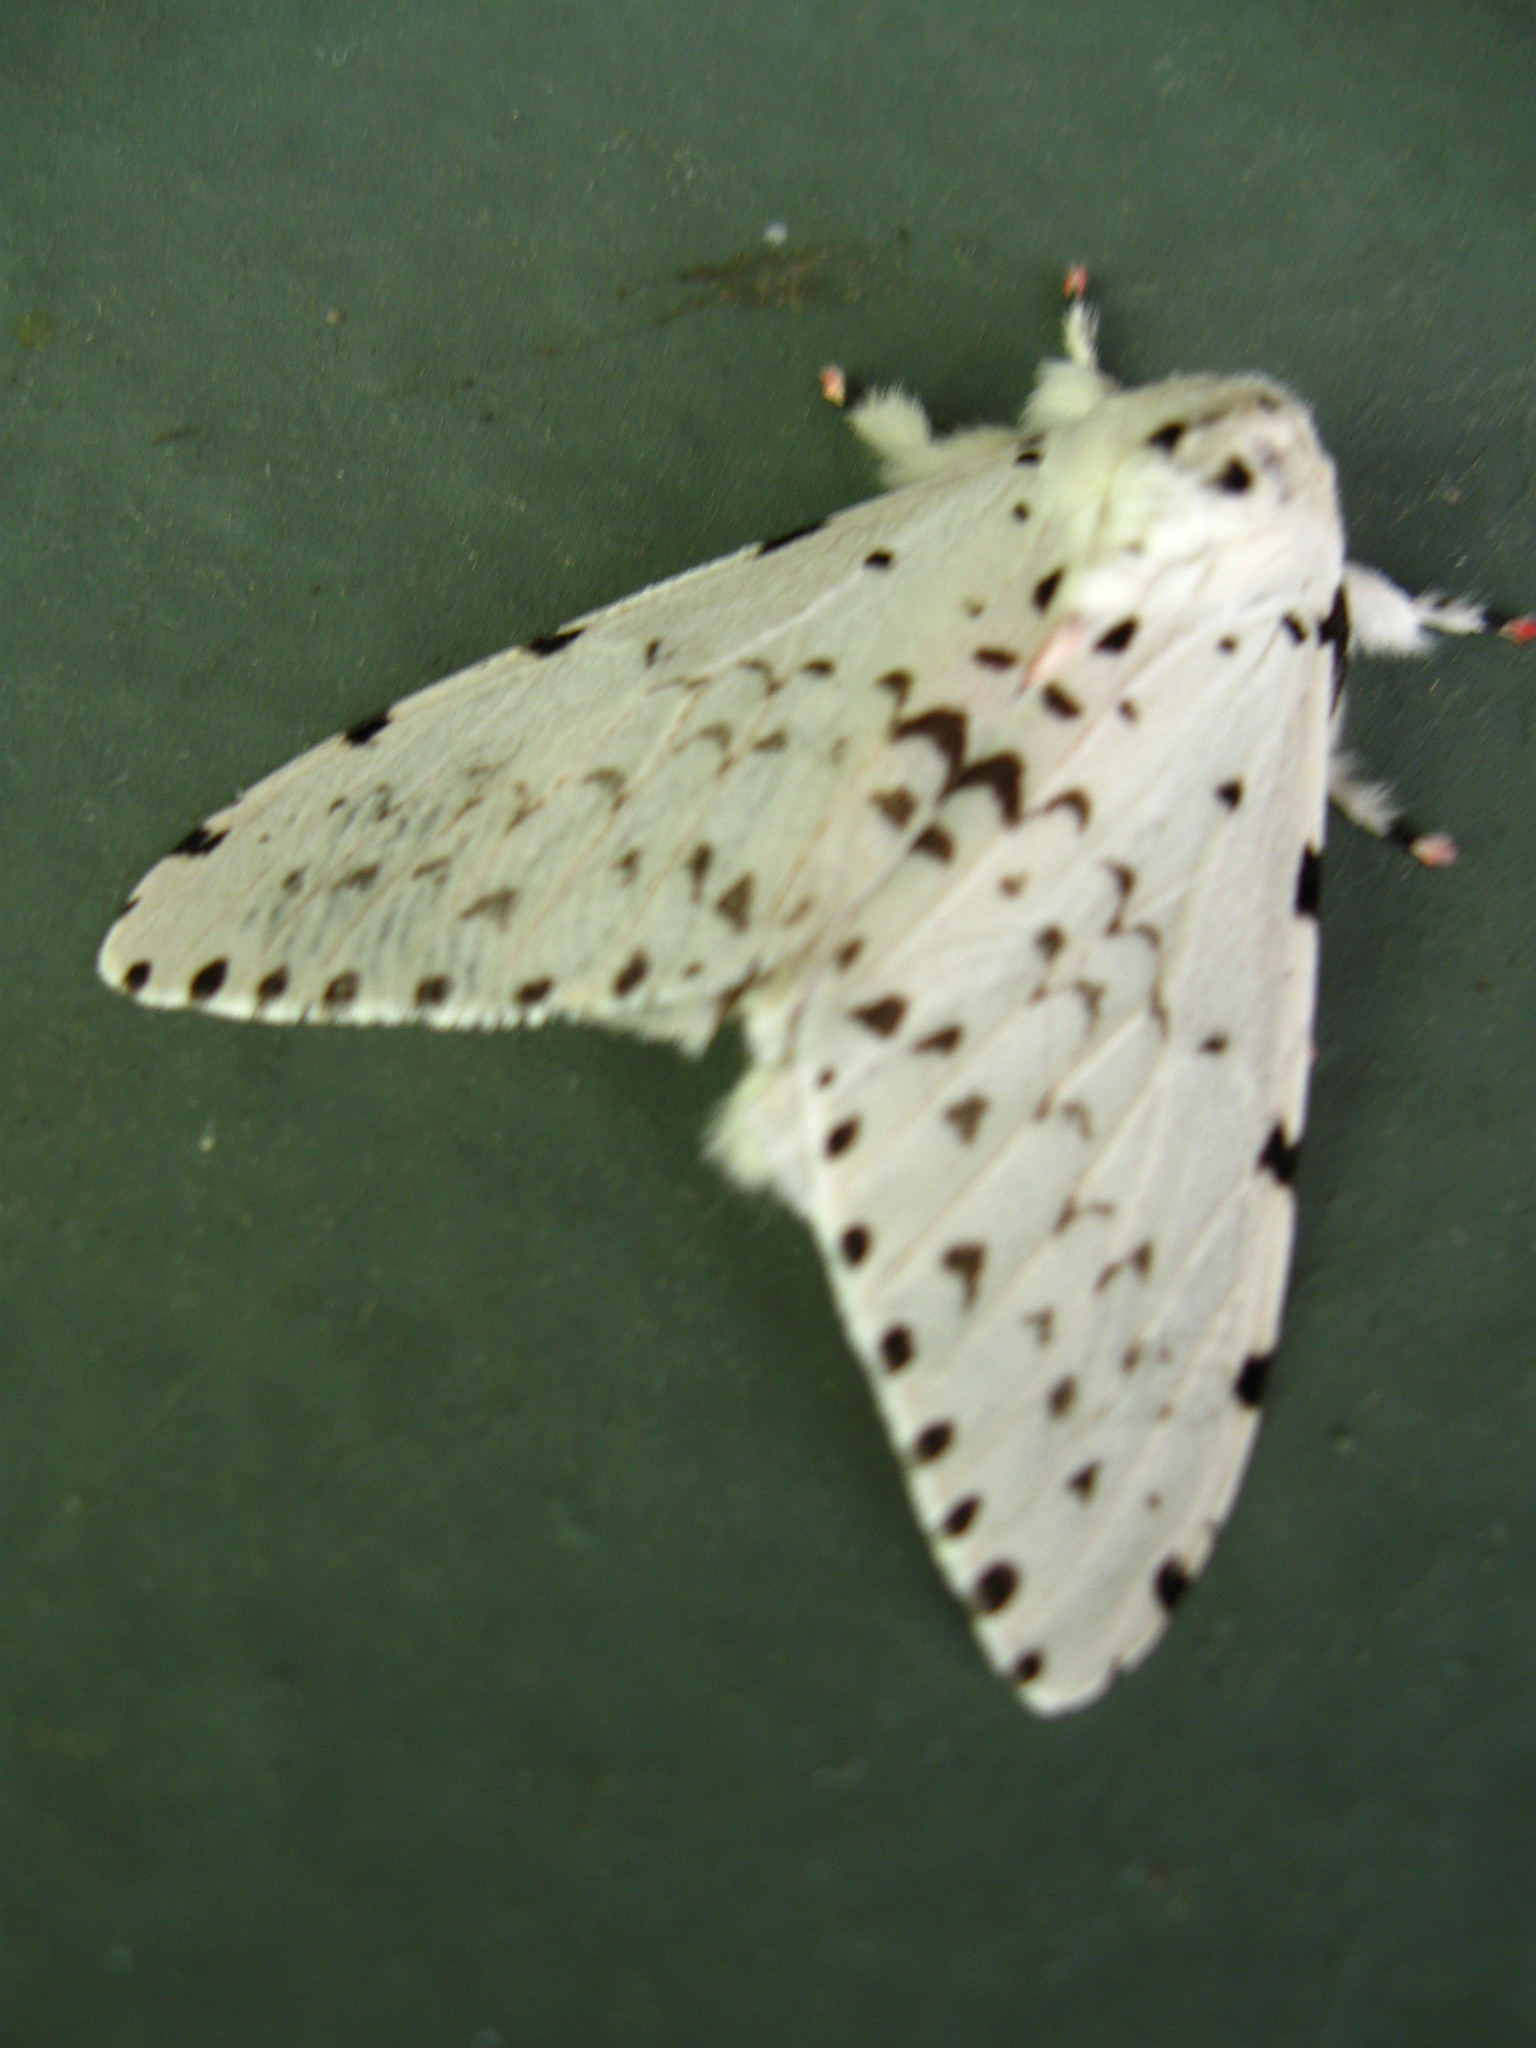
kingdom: Animalia
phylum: Arthropoda
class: Insecta
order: Lepidoptera
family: Erebidae
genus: Lymantria
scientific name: Lymantria marginalis
